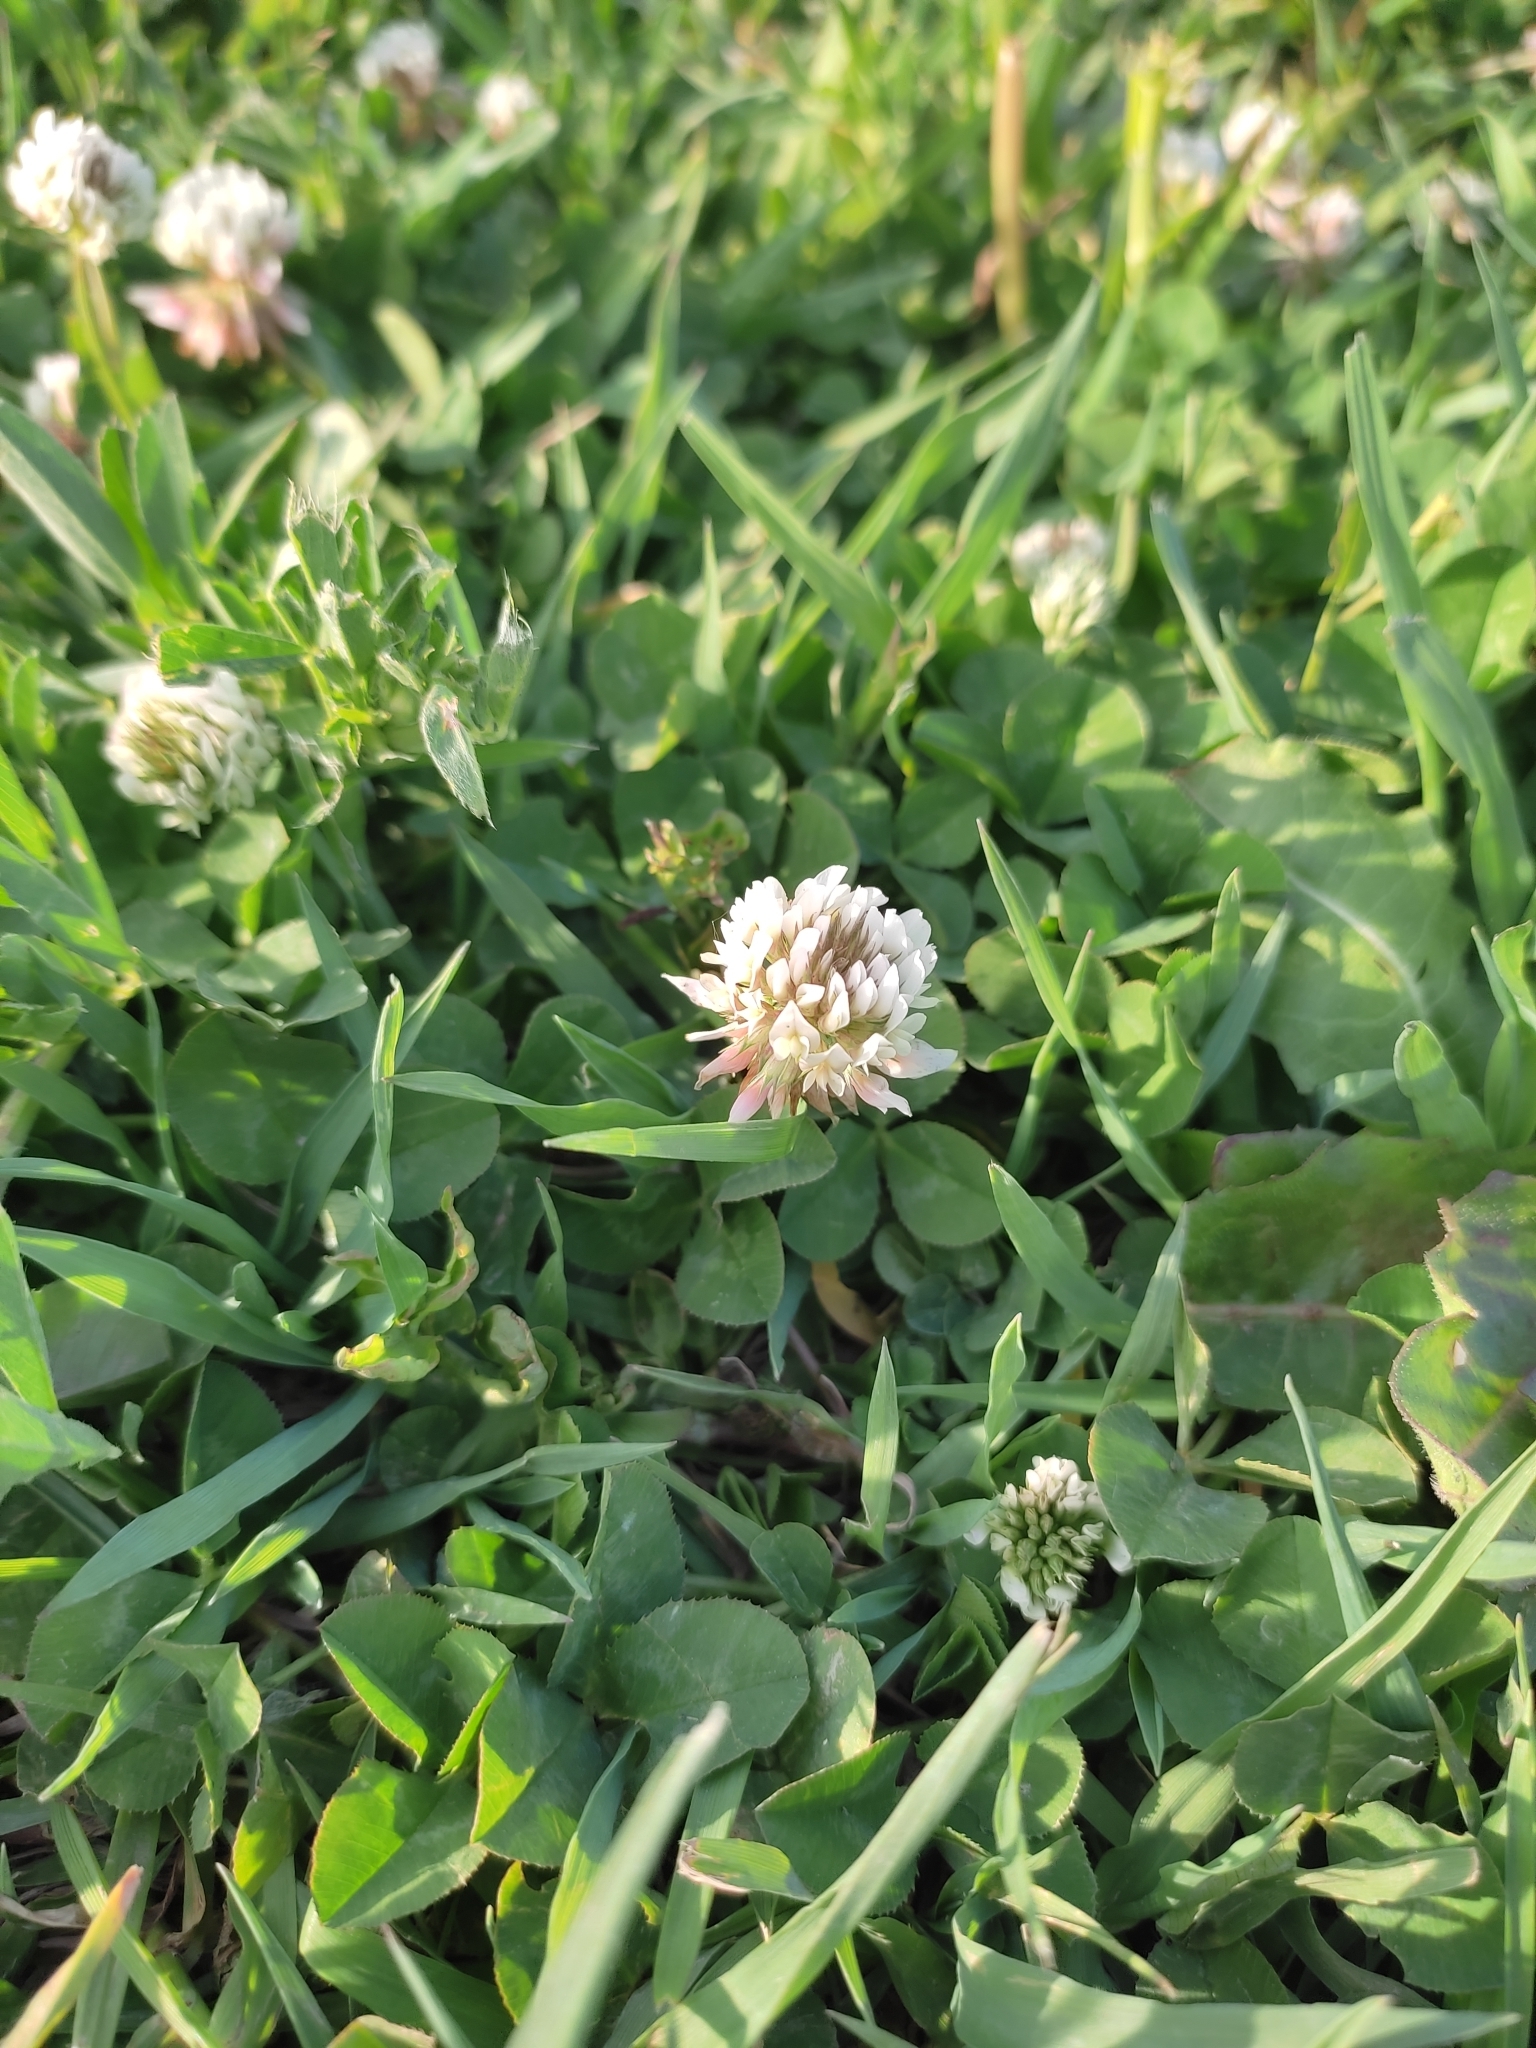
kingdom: Plantae
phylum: Tracheophyta
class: Magnoliopsida
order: Fabales
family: Fabaceae
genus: Trifolium
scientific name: Trifolium repens
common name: White clover
